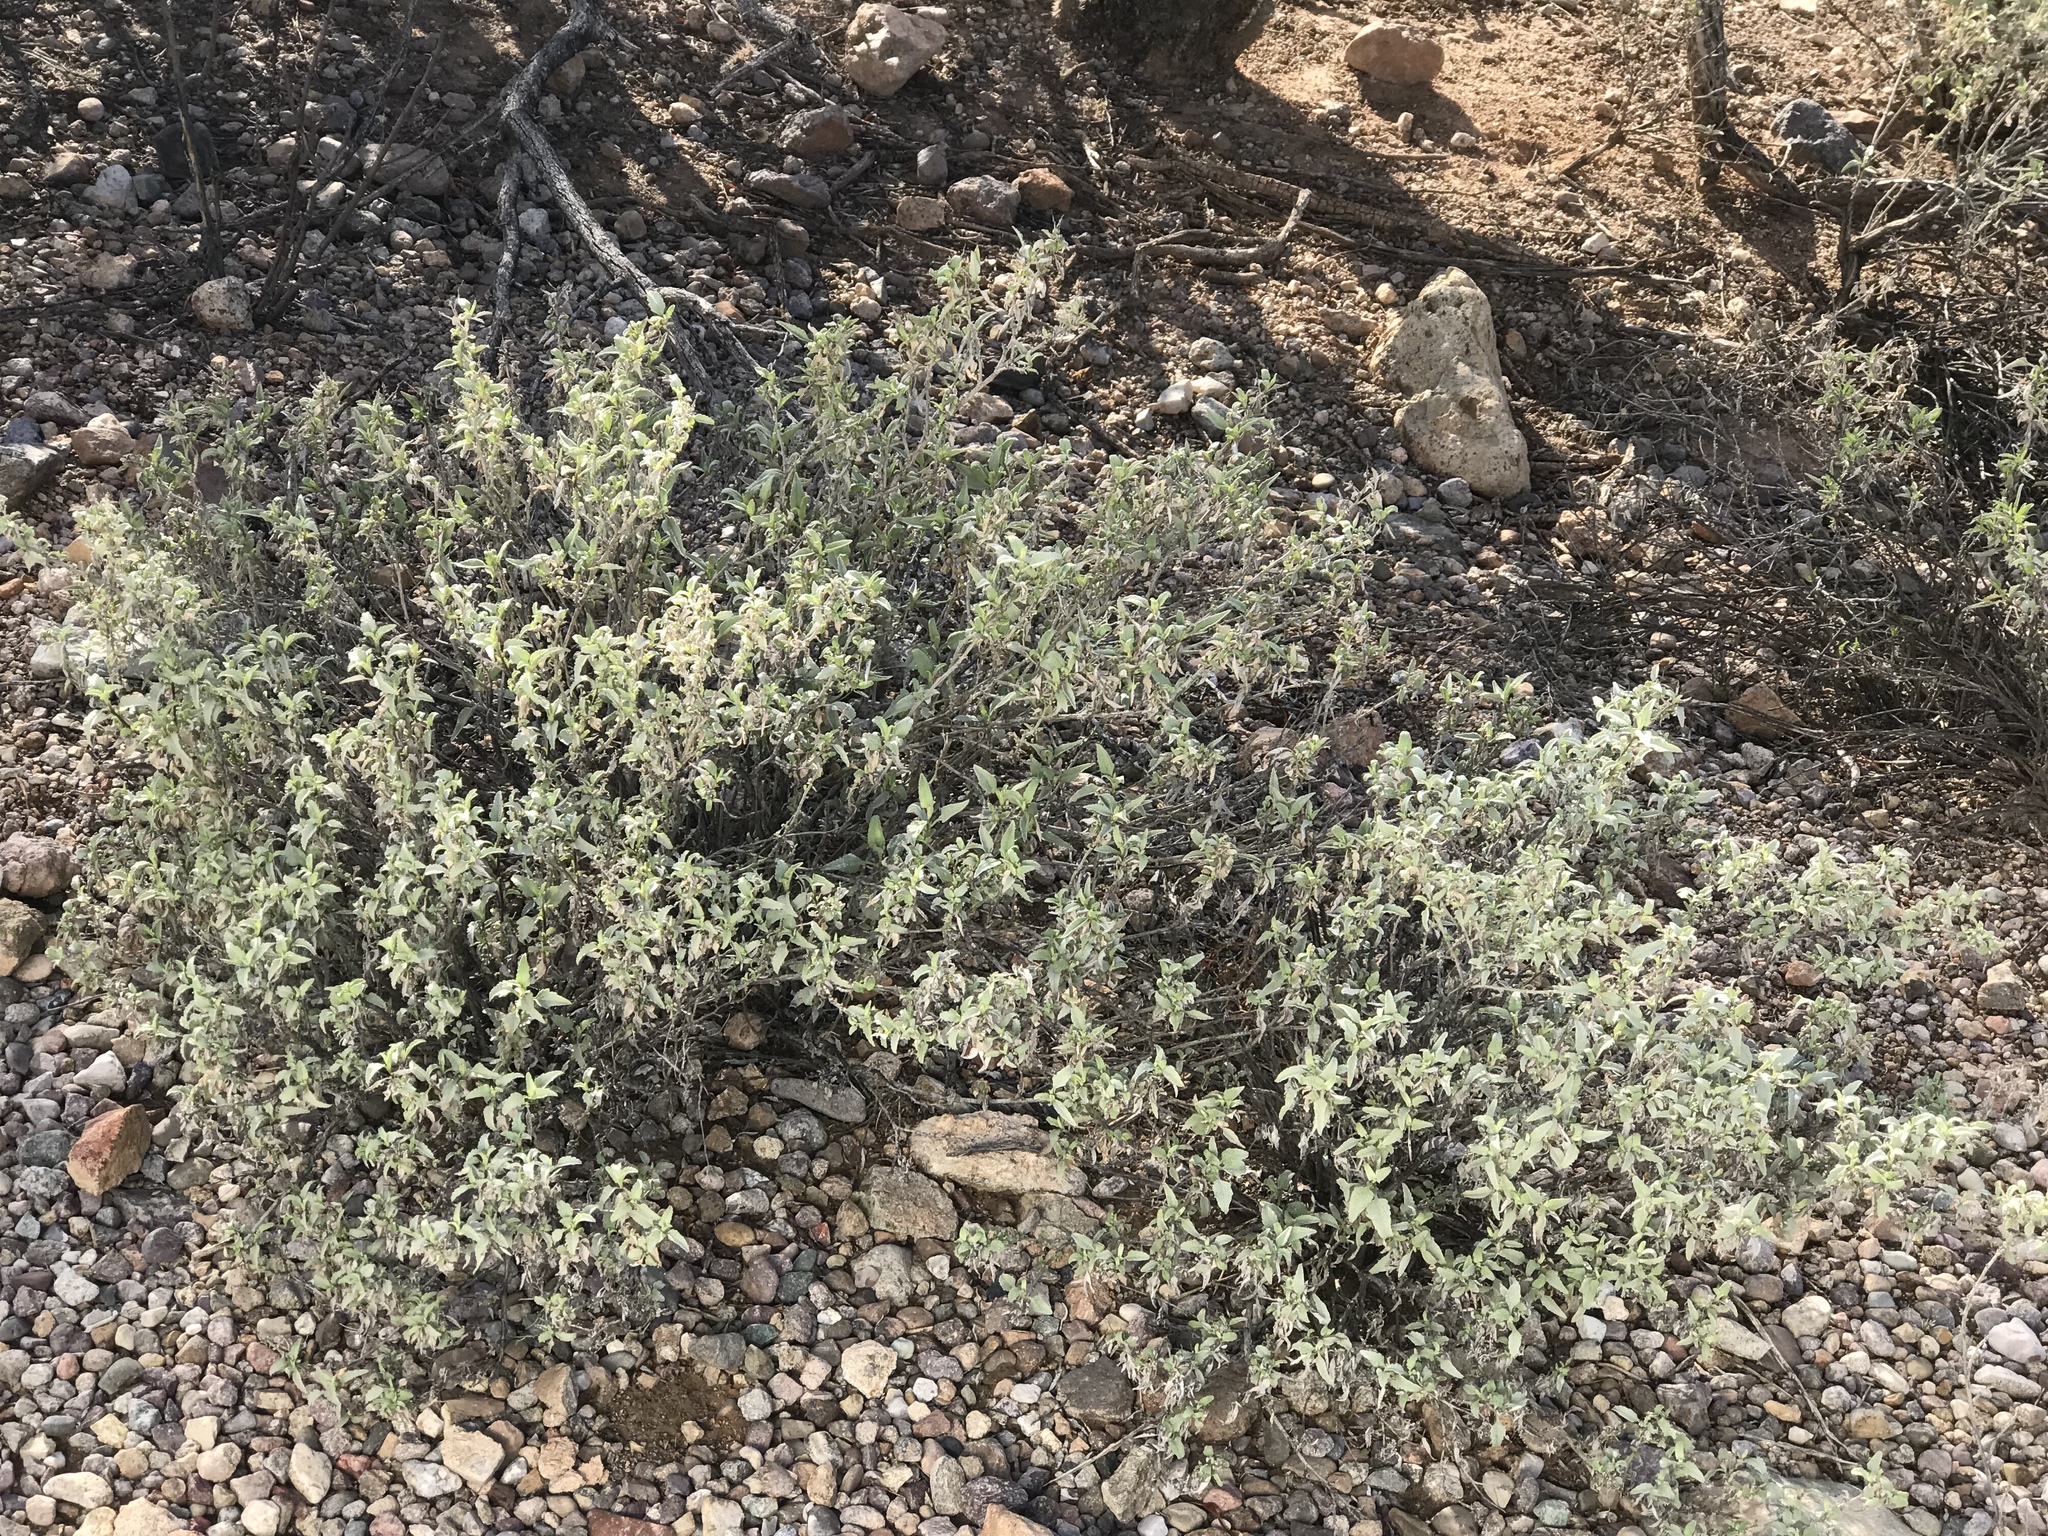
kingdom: Plantae
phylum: Tracheophyta
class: Magnoliopsida
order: Asterales
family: Asteraceae
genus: Ambrosia
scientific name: Ambrosia deltoidea
